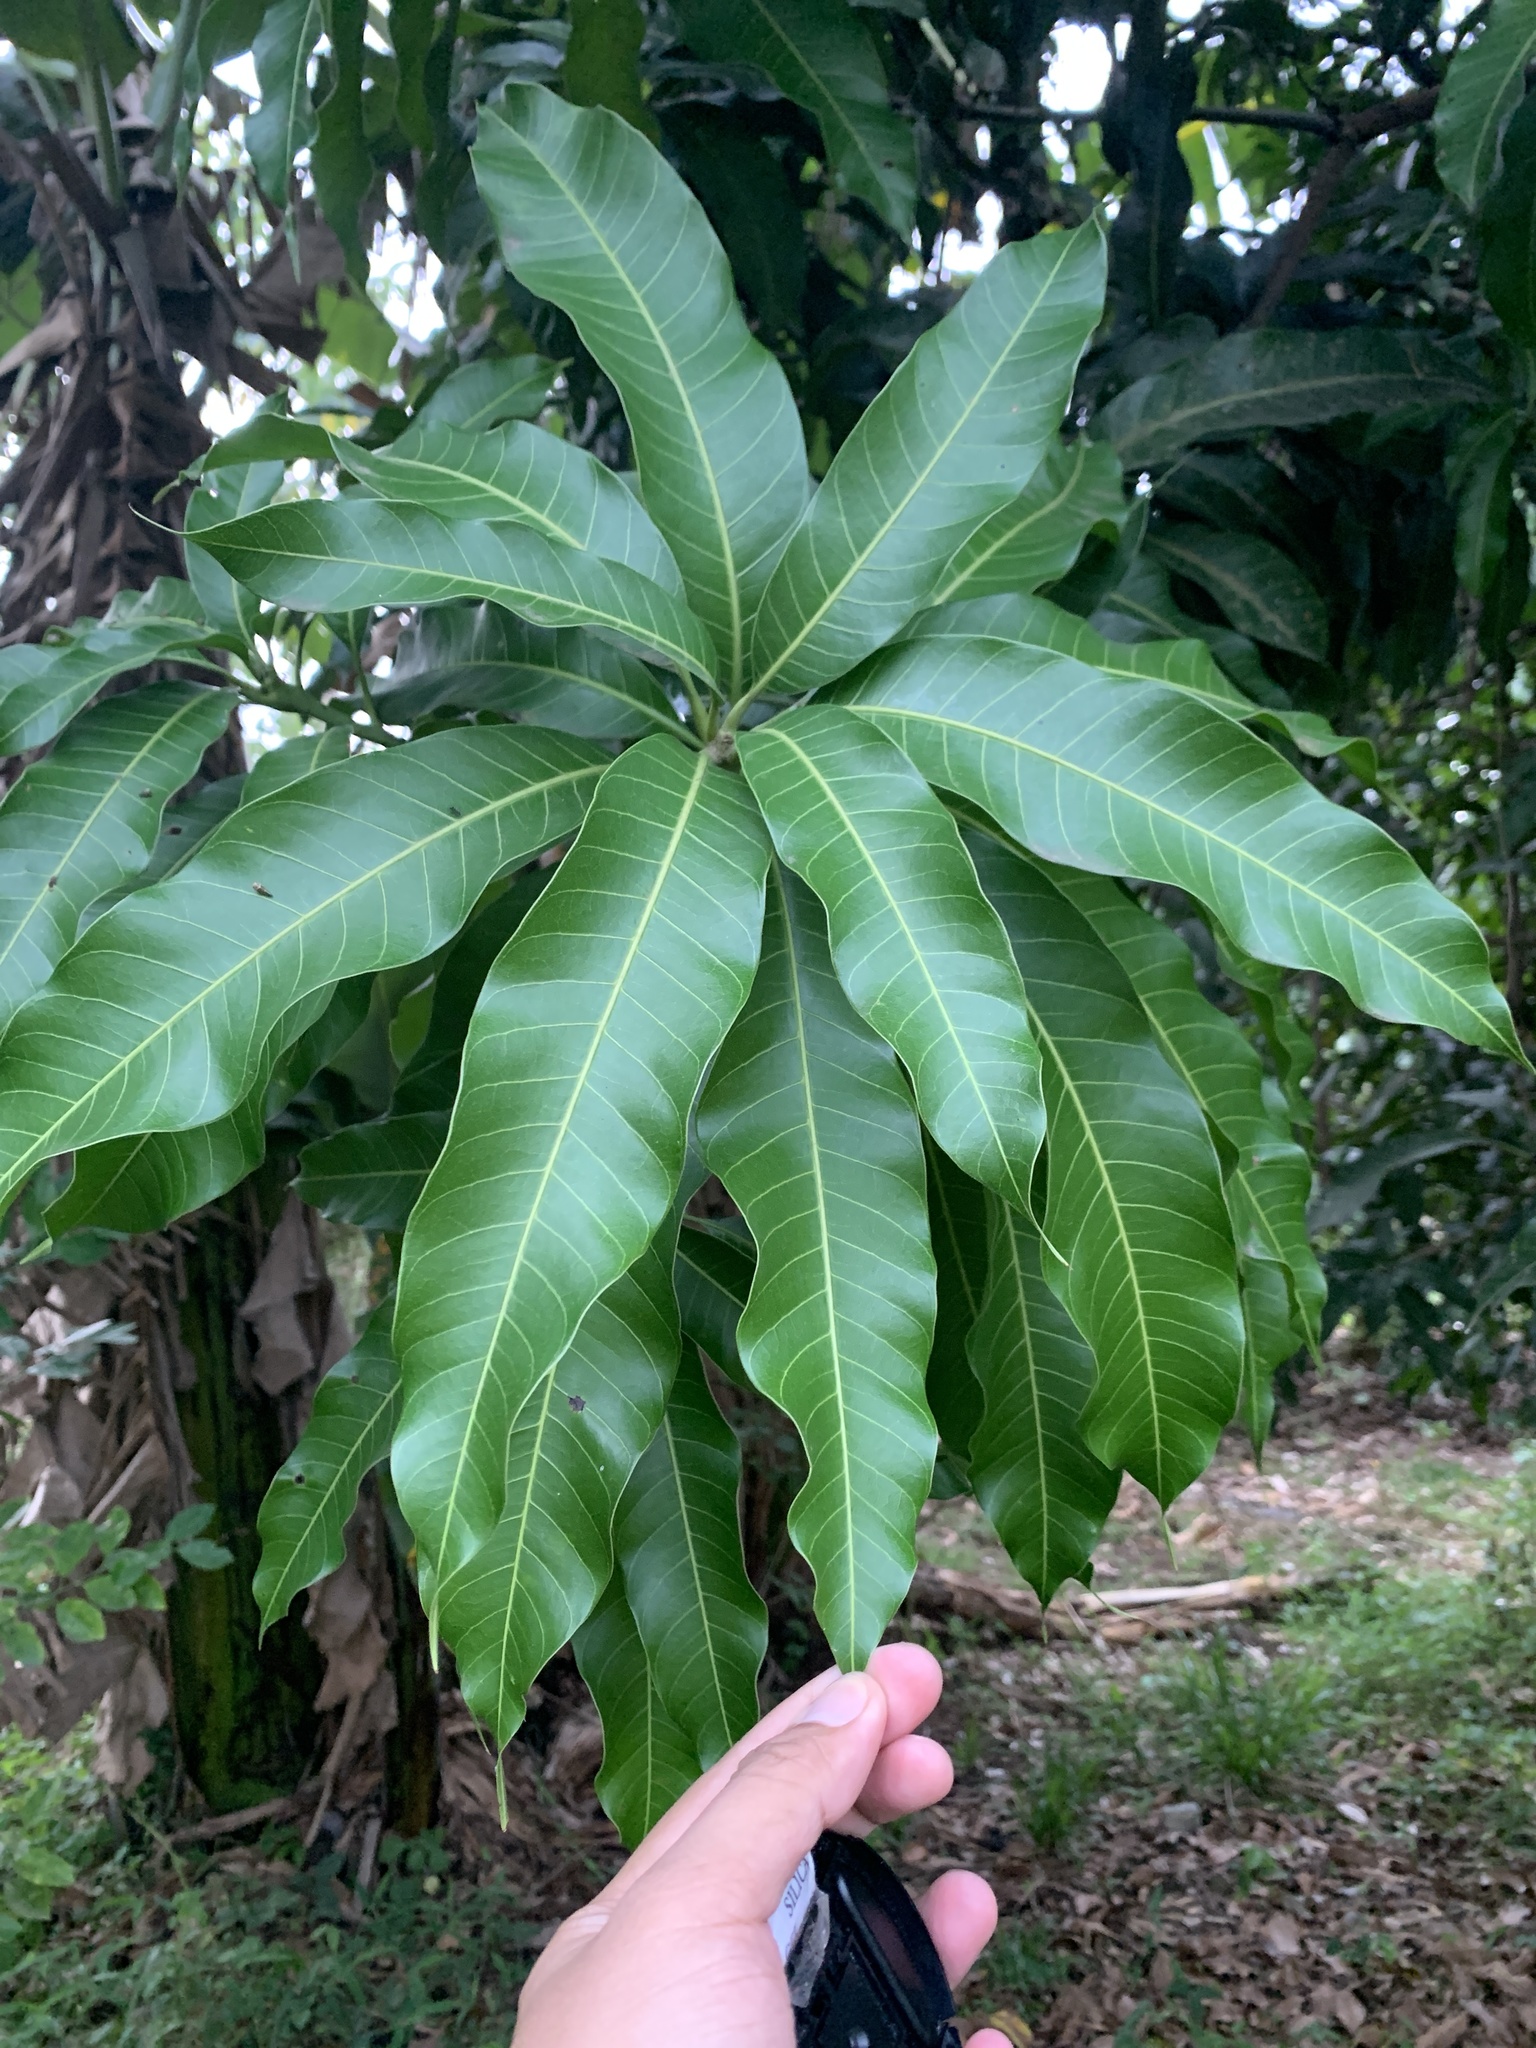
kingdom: Plantae
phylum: Tracheophyta
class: Magnoliopsida
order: Sapindales
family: Anacardiaceae
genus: Mangifera
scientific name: Mangifera indica
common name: Mango
